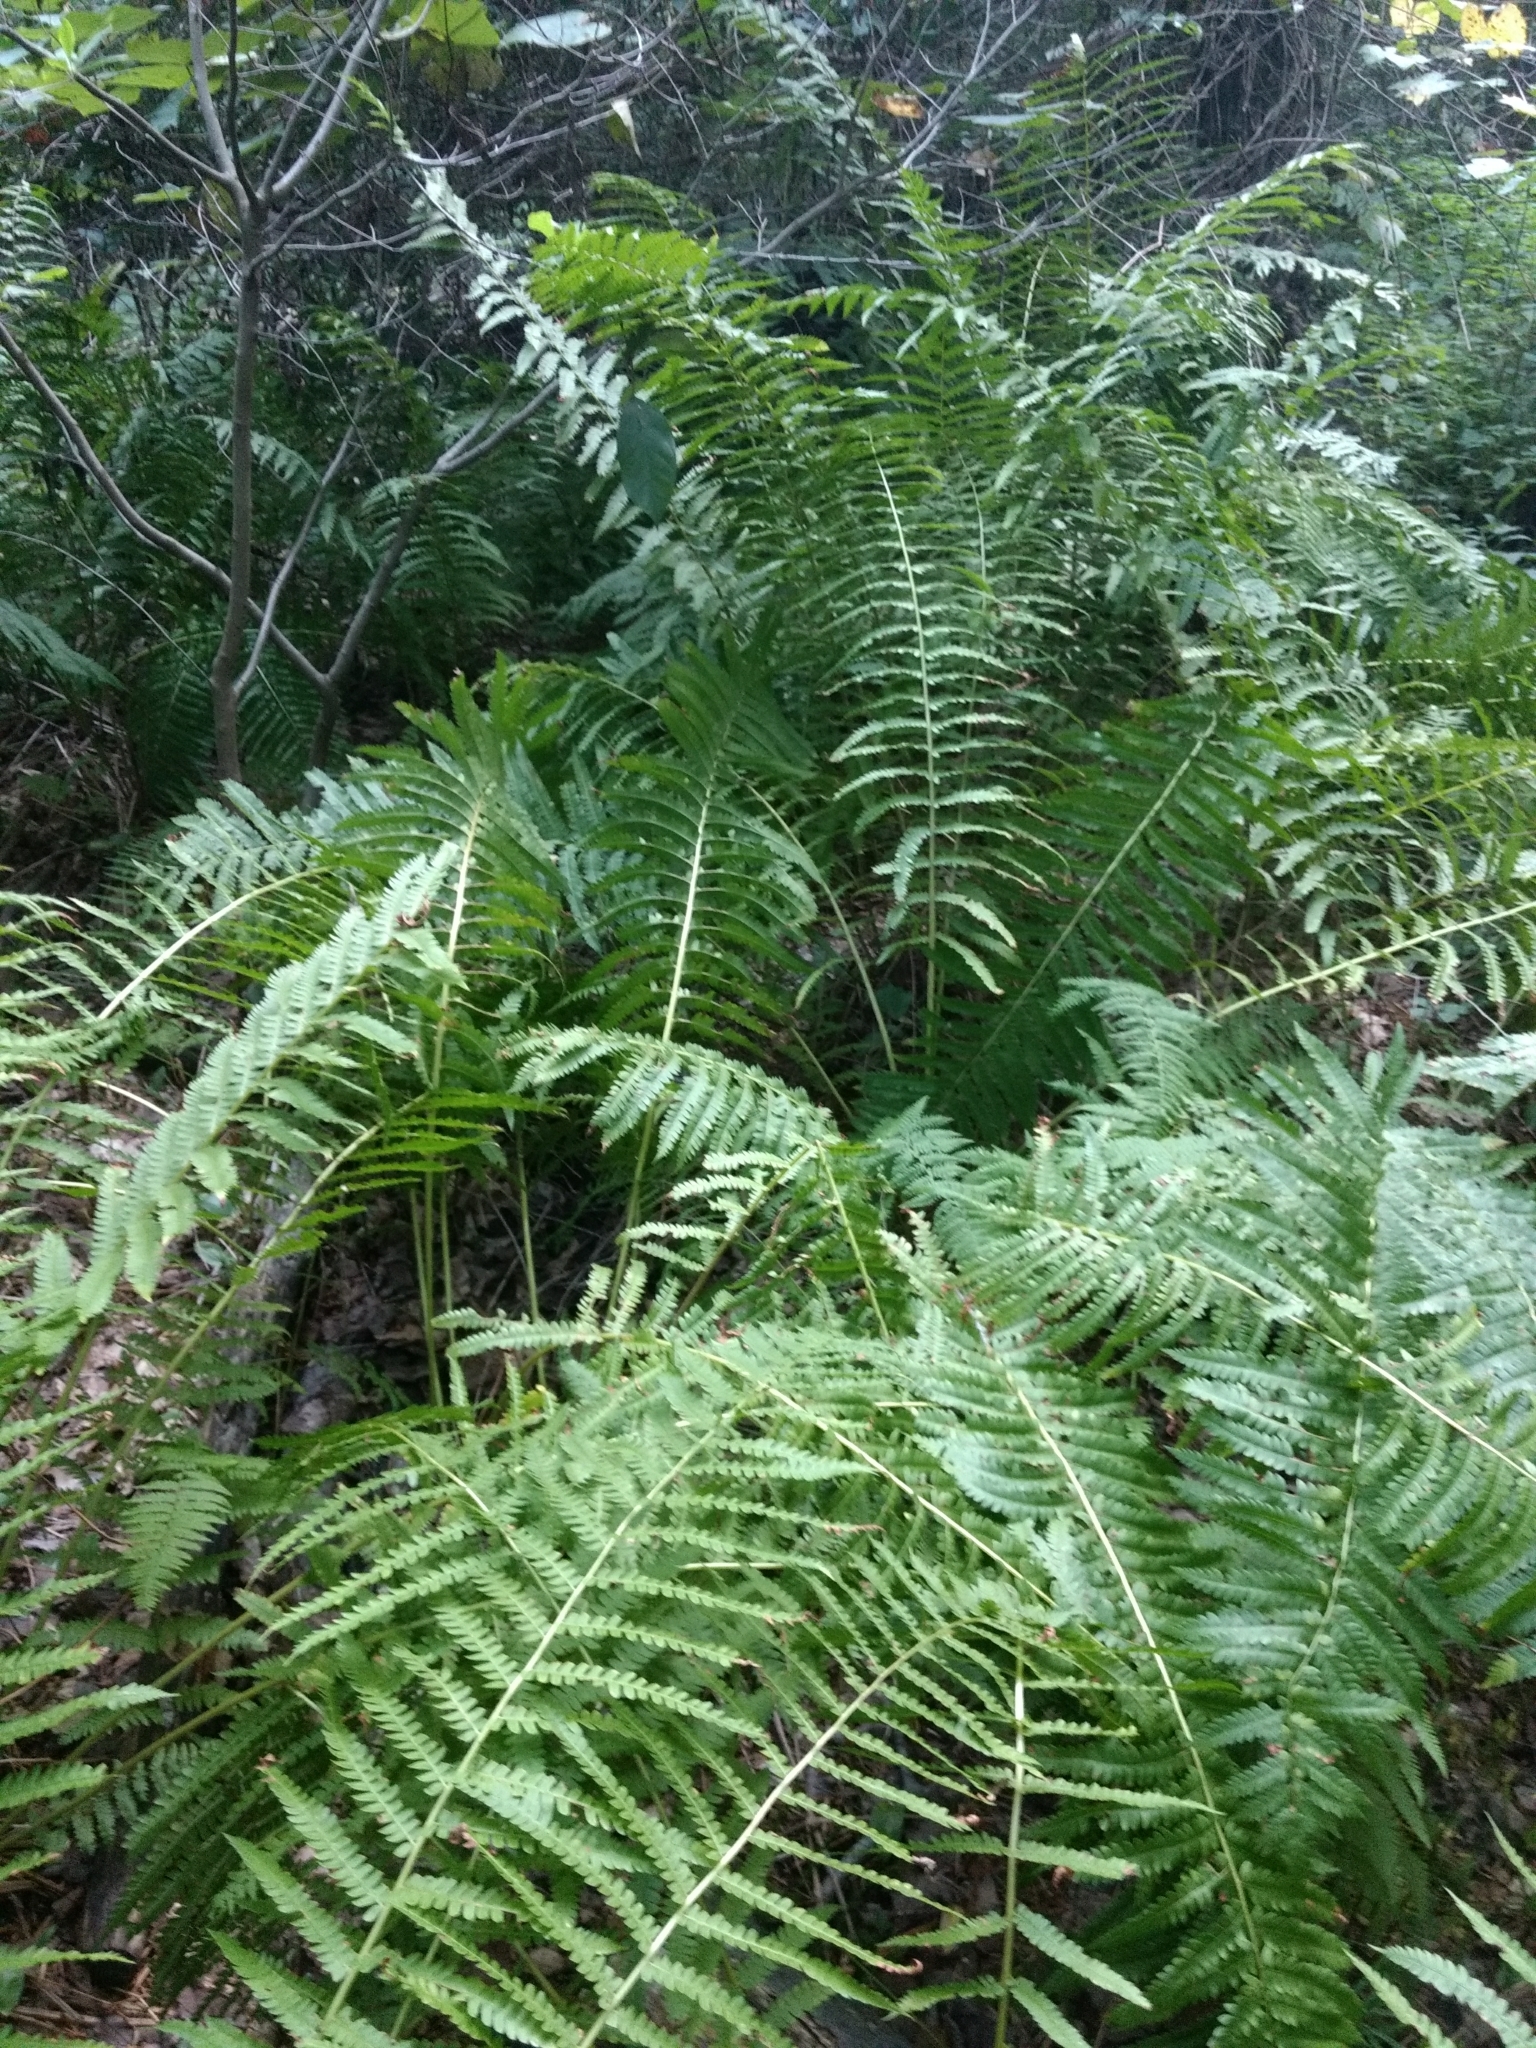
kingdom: Plantae
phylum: Tracheophyta
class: Polypodiopsida
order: Osmundales
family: Osmundaceae
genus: Osmundastrum
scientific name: Osmundastrum cinnamomeum
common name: Cinnamon fern
